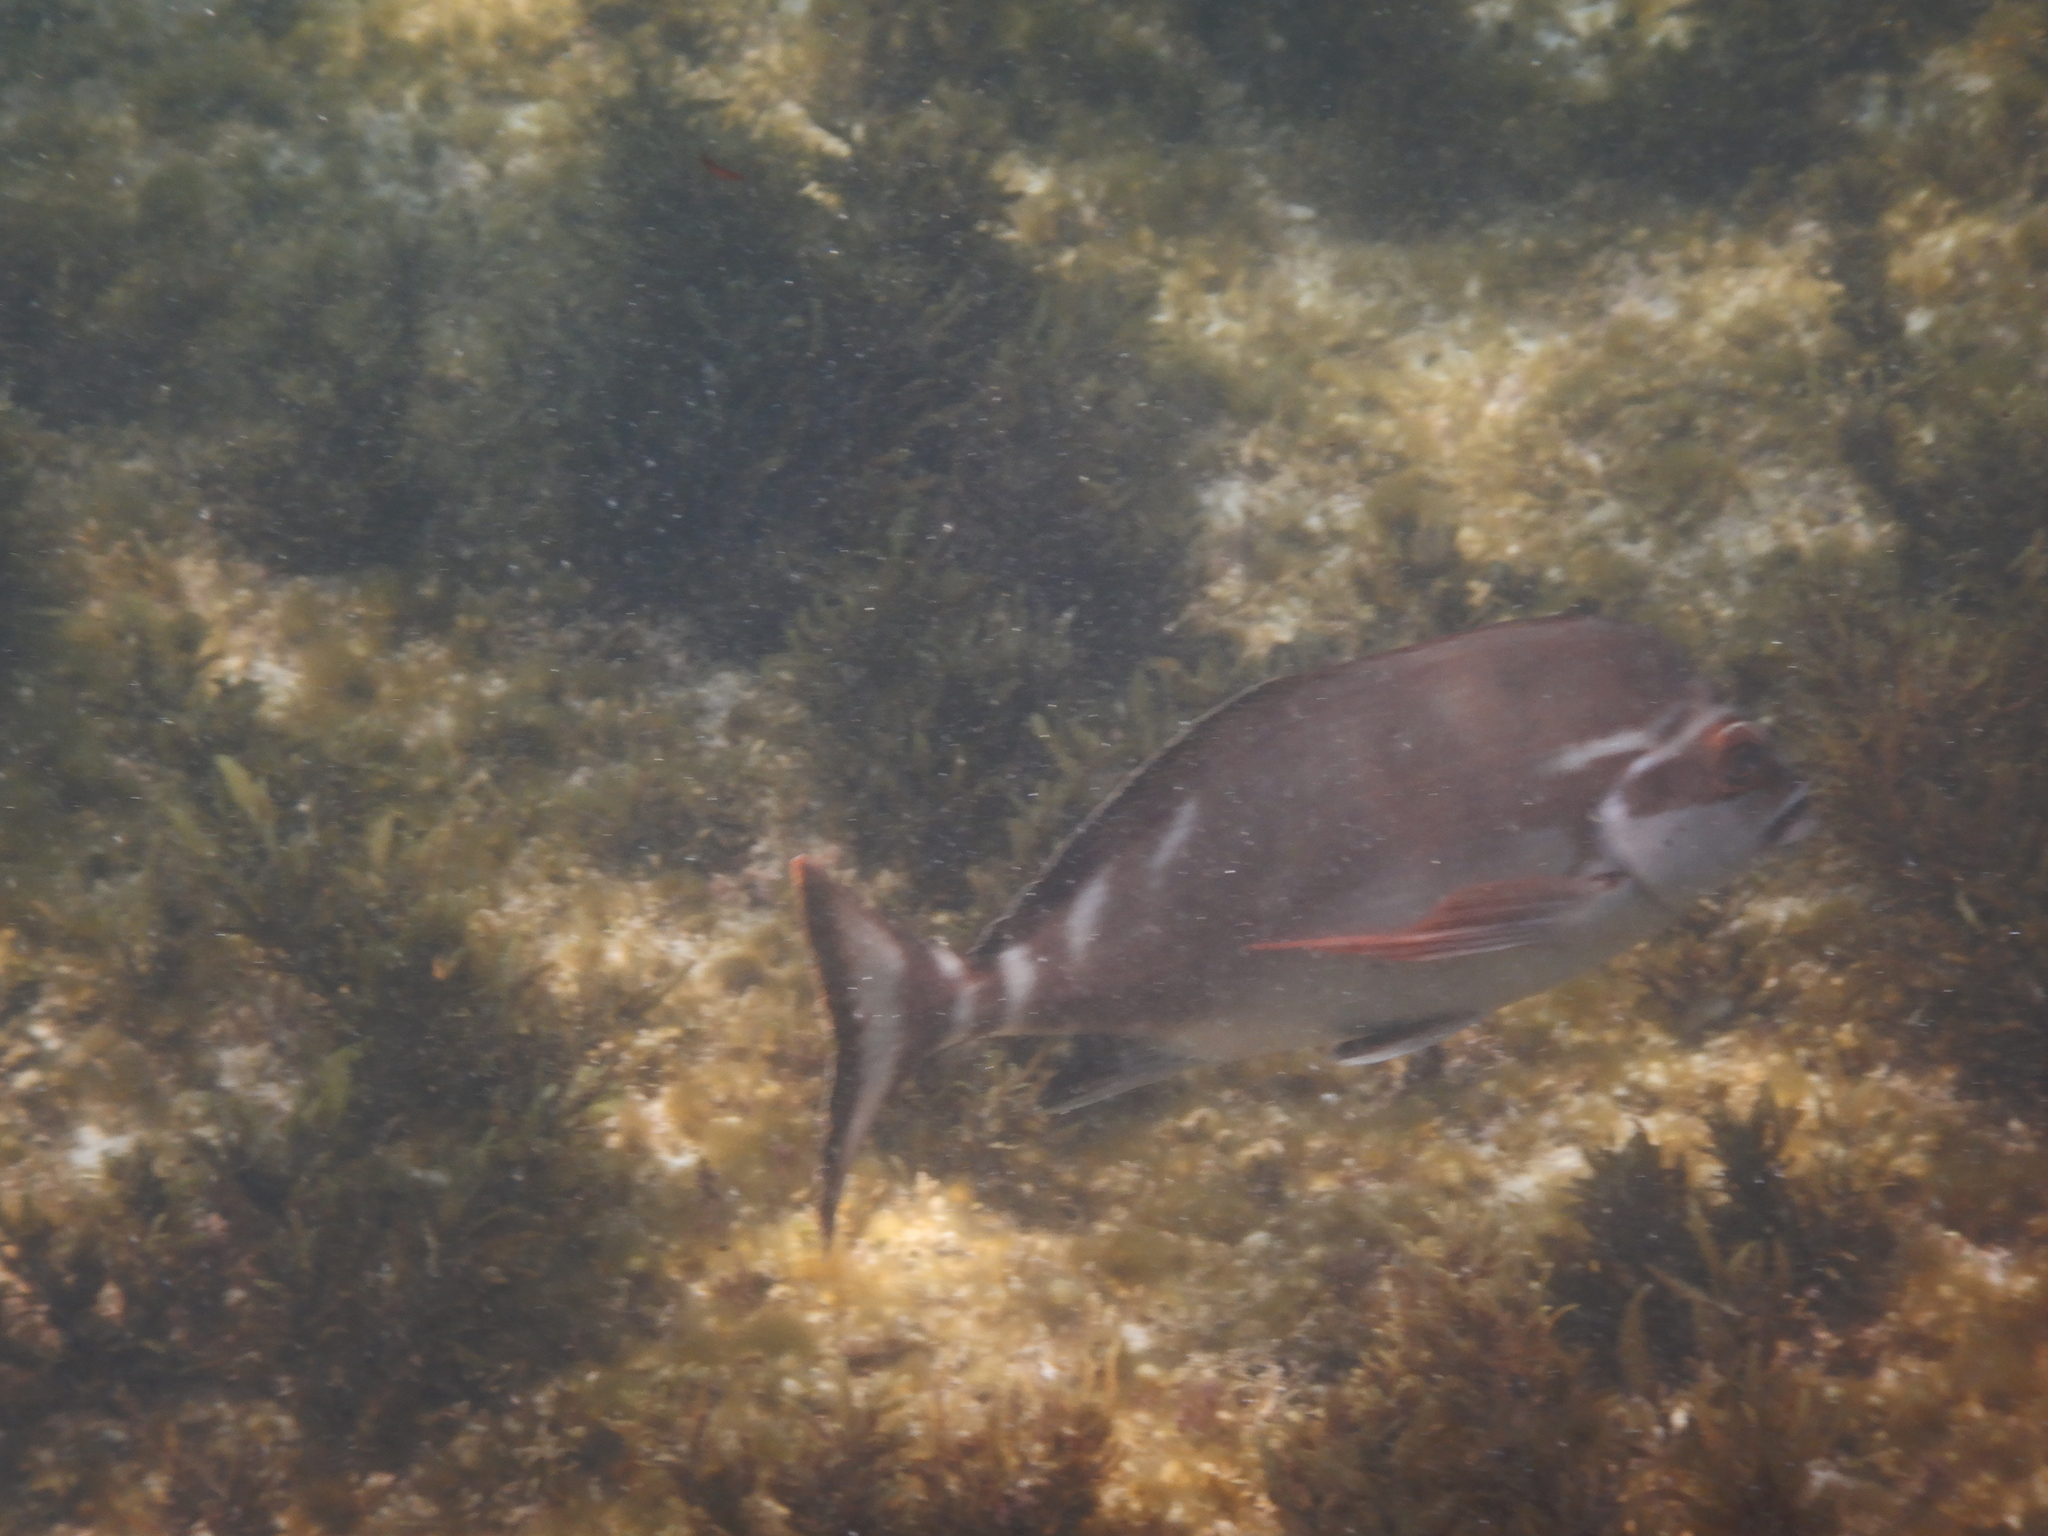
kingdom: Animalia
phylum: Chordata
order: Perciformes
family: Latridae
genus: Morwong
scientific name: Morwong fuscus
